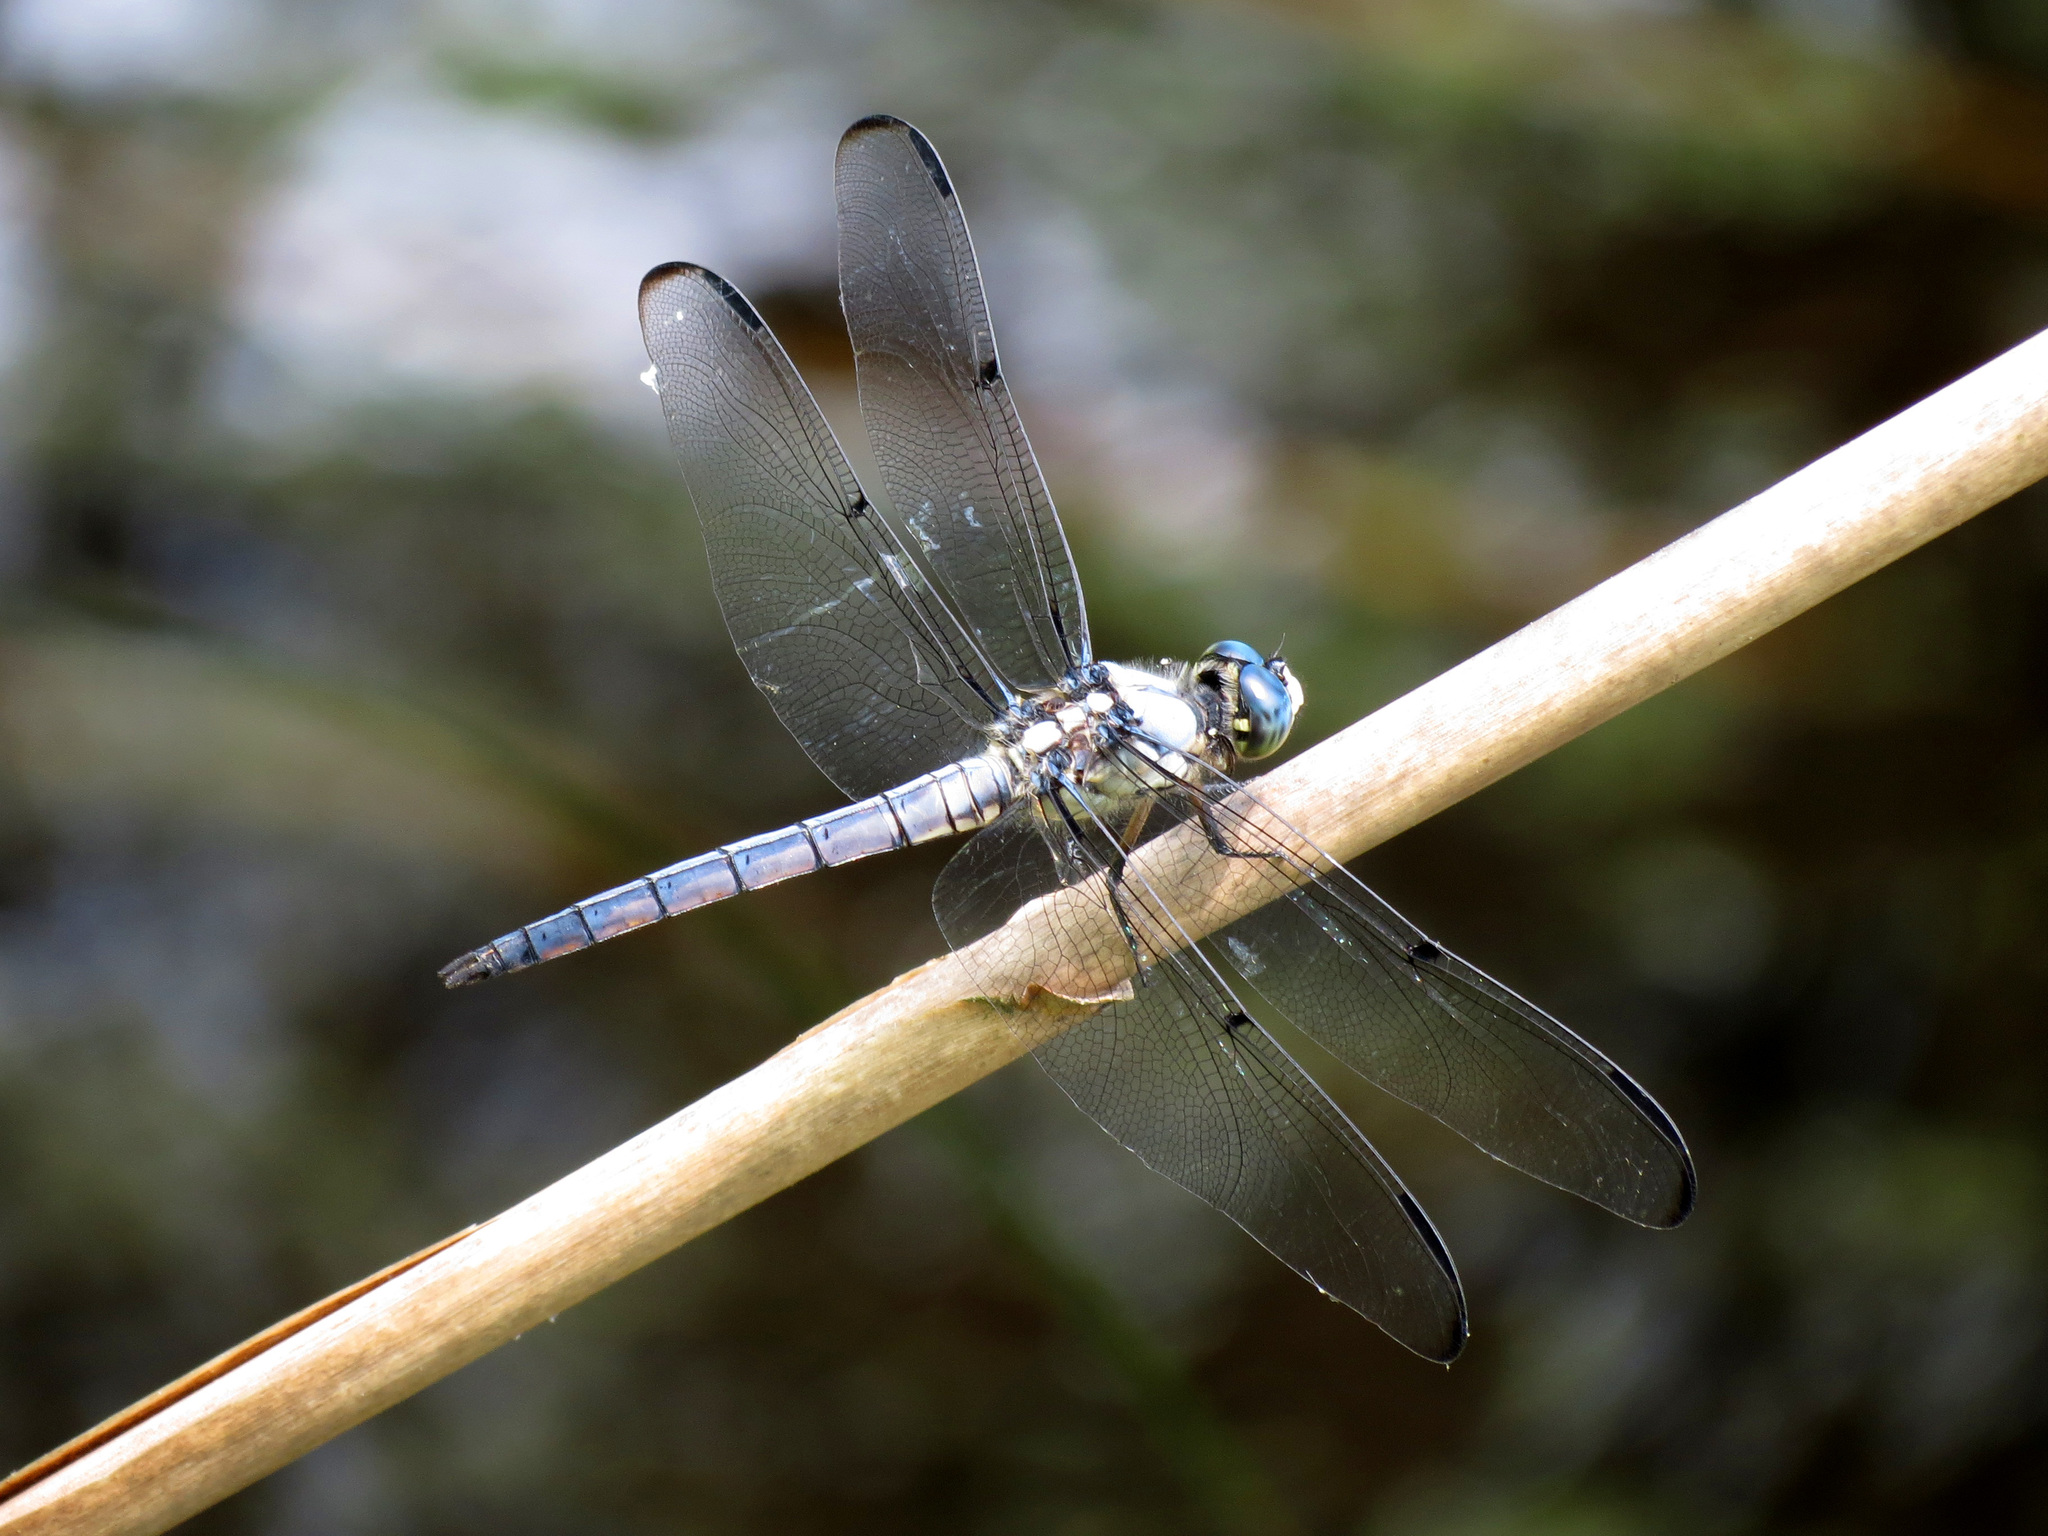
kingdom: Animalia
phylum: Arthropoda
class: Insecta
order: Odonata
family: Libellulidae
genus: Libellula
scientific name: Libellula vibrans
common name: Great blue skimmer
